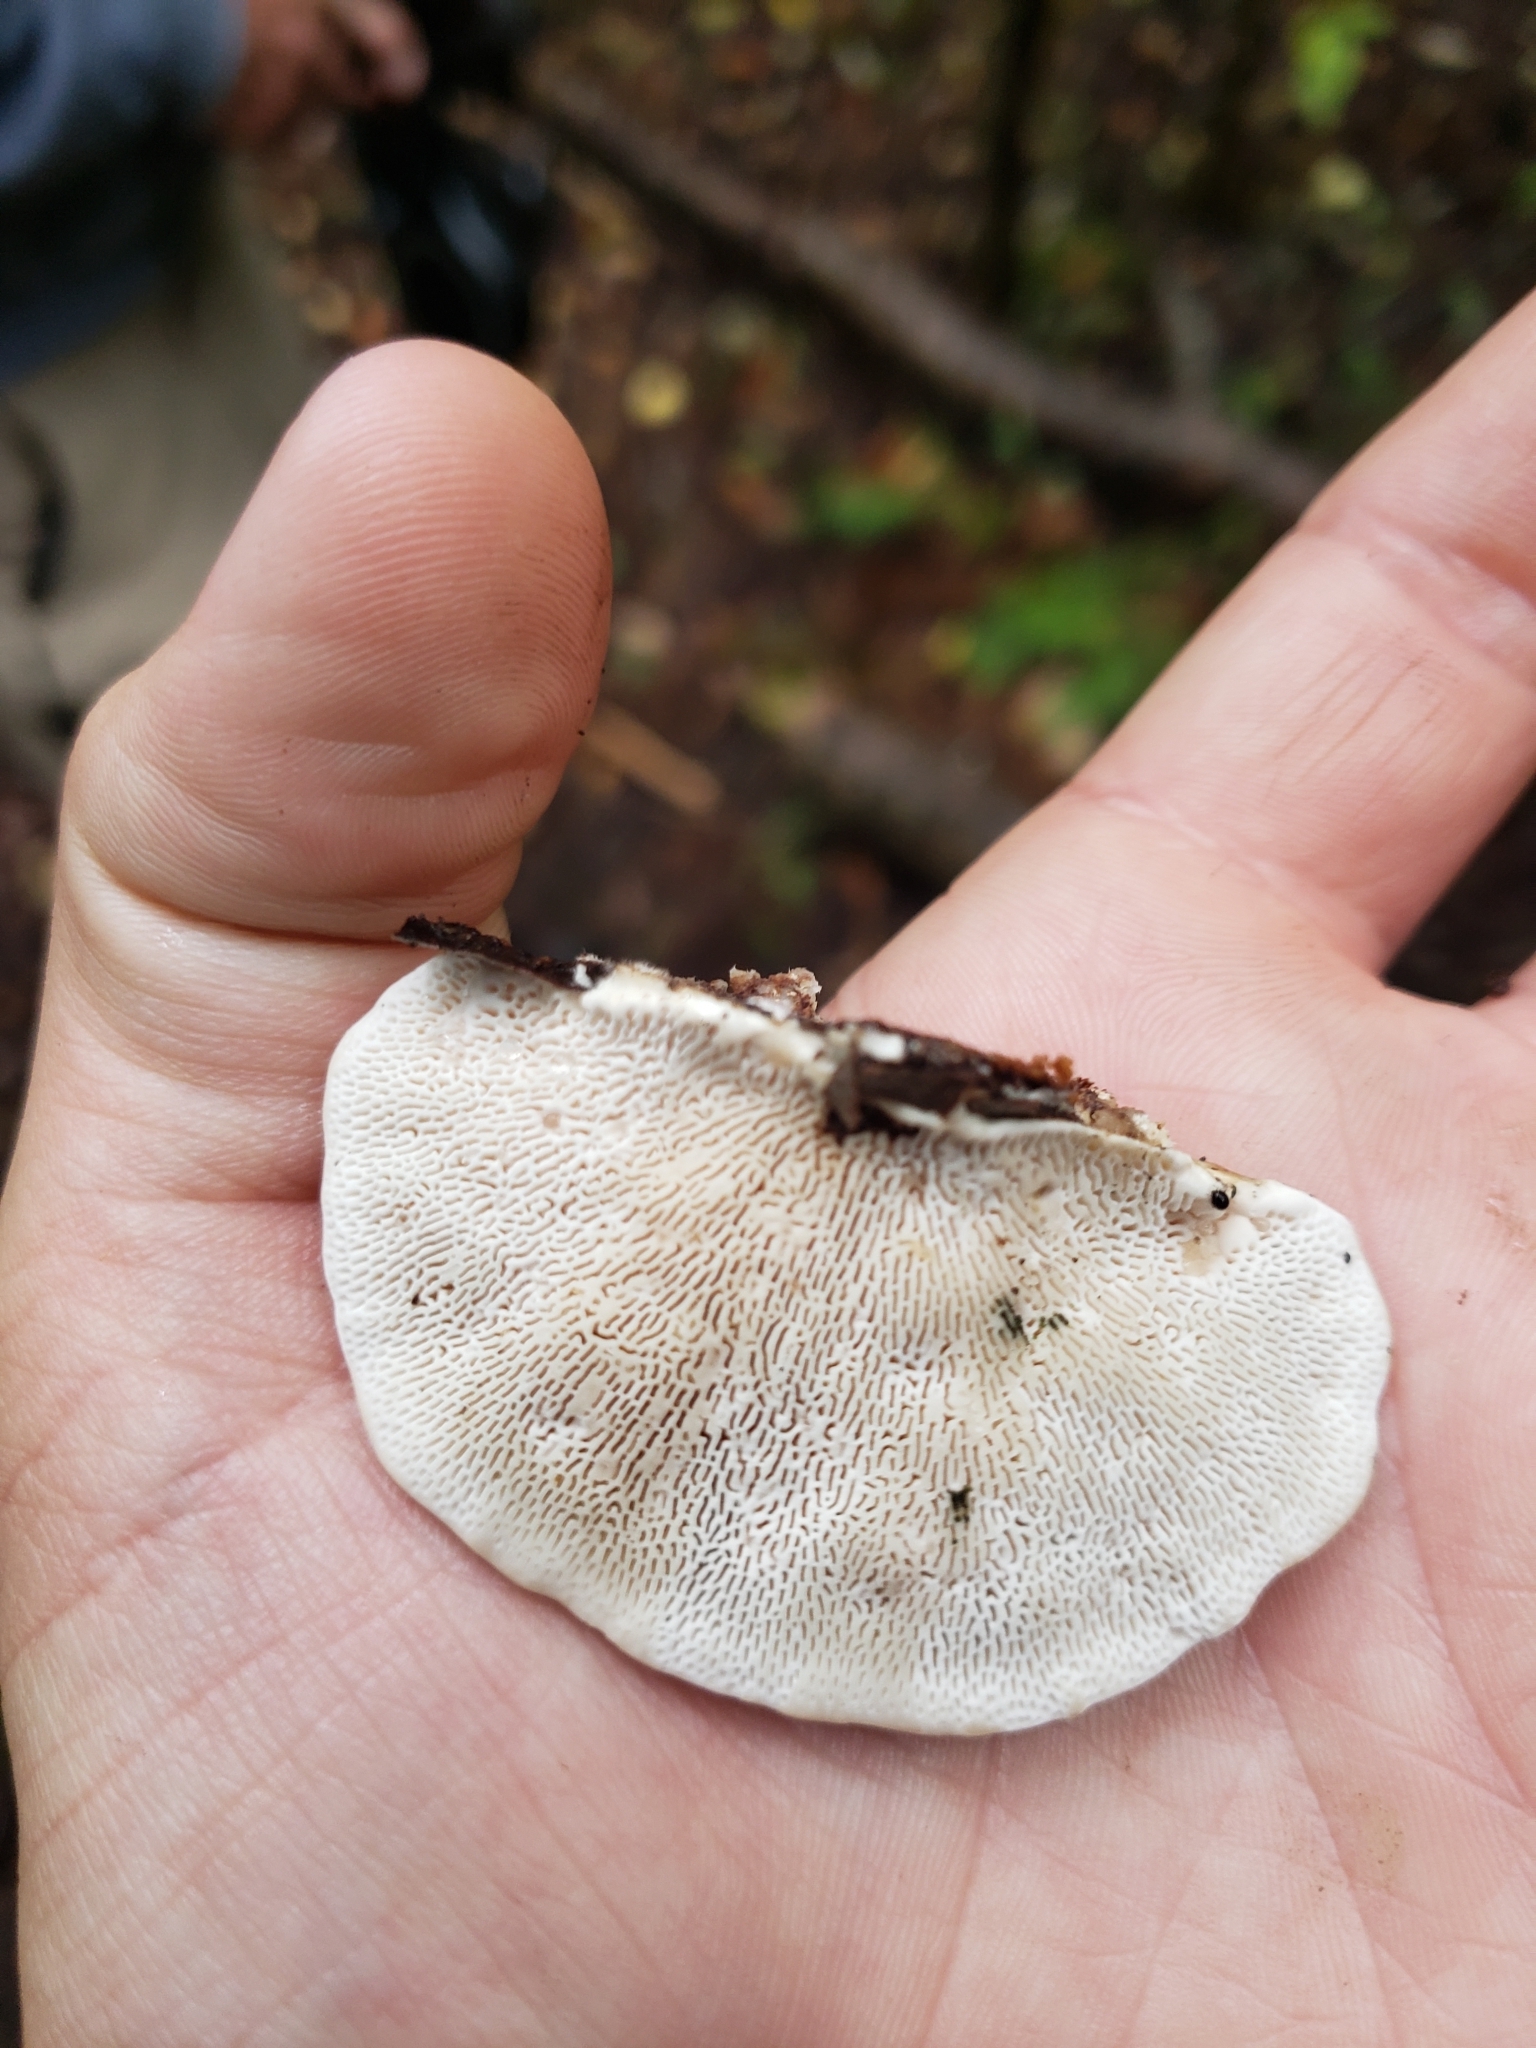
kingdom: Fungi
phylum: Basidiomycota
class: Agaricomycetes
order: Polyporales
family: Polyporaceae
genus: Trametes
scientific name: Trametes gibbosa
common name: Lumpy bracket
